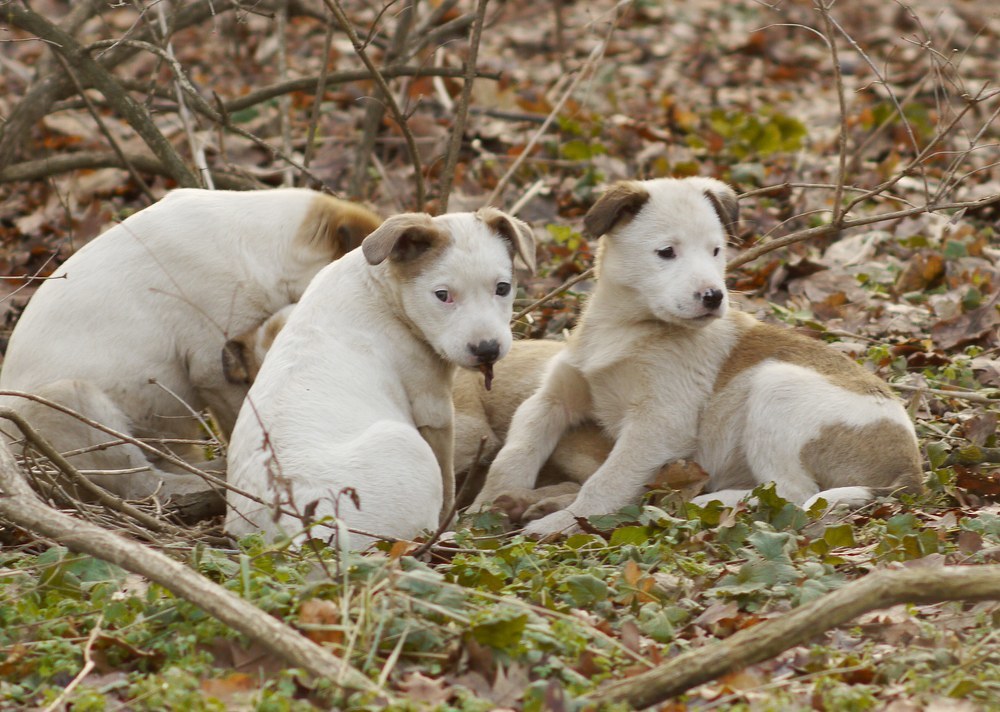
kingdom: Animalia
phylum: Chordata
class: Mammalia
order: Carnivora
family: Canidae
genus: Canis
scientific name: Canis lupus
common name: Gray wolf
